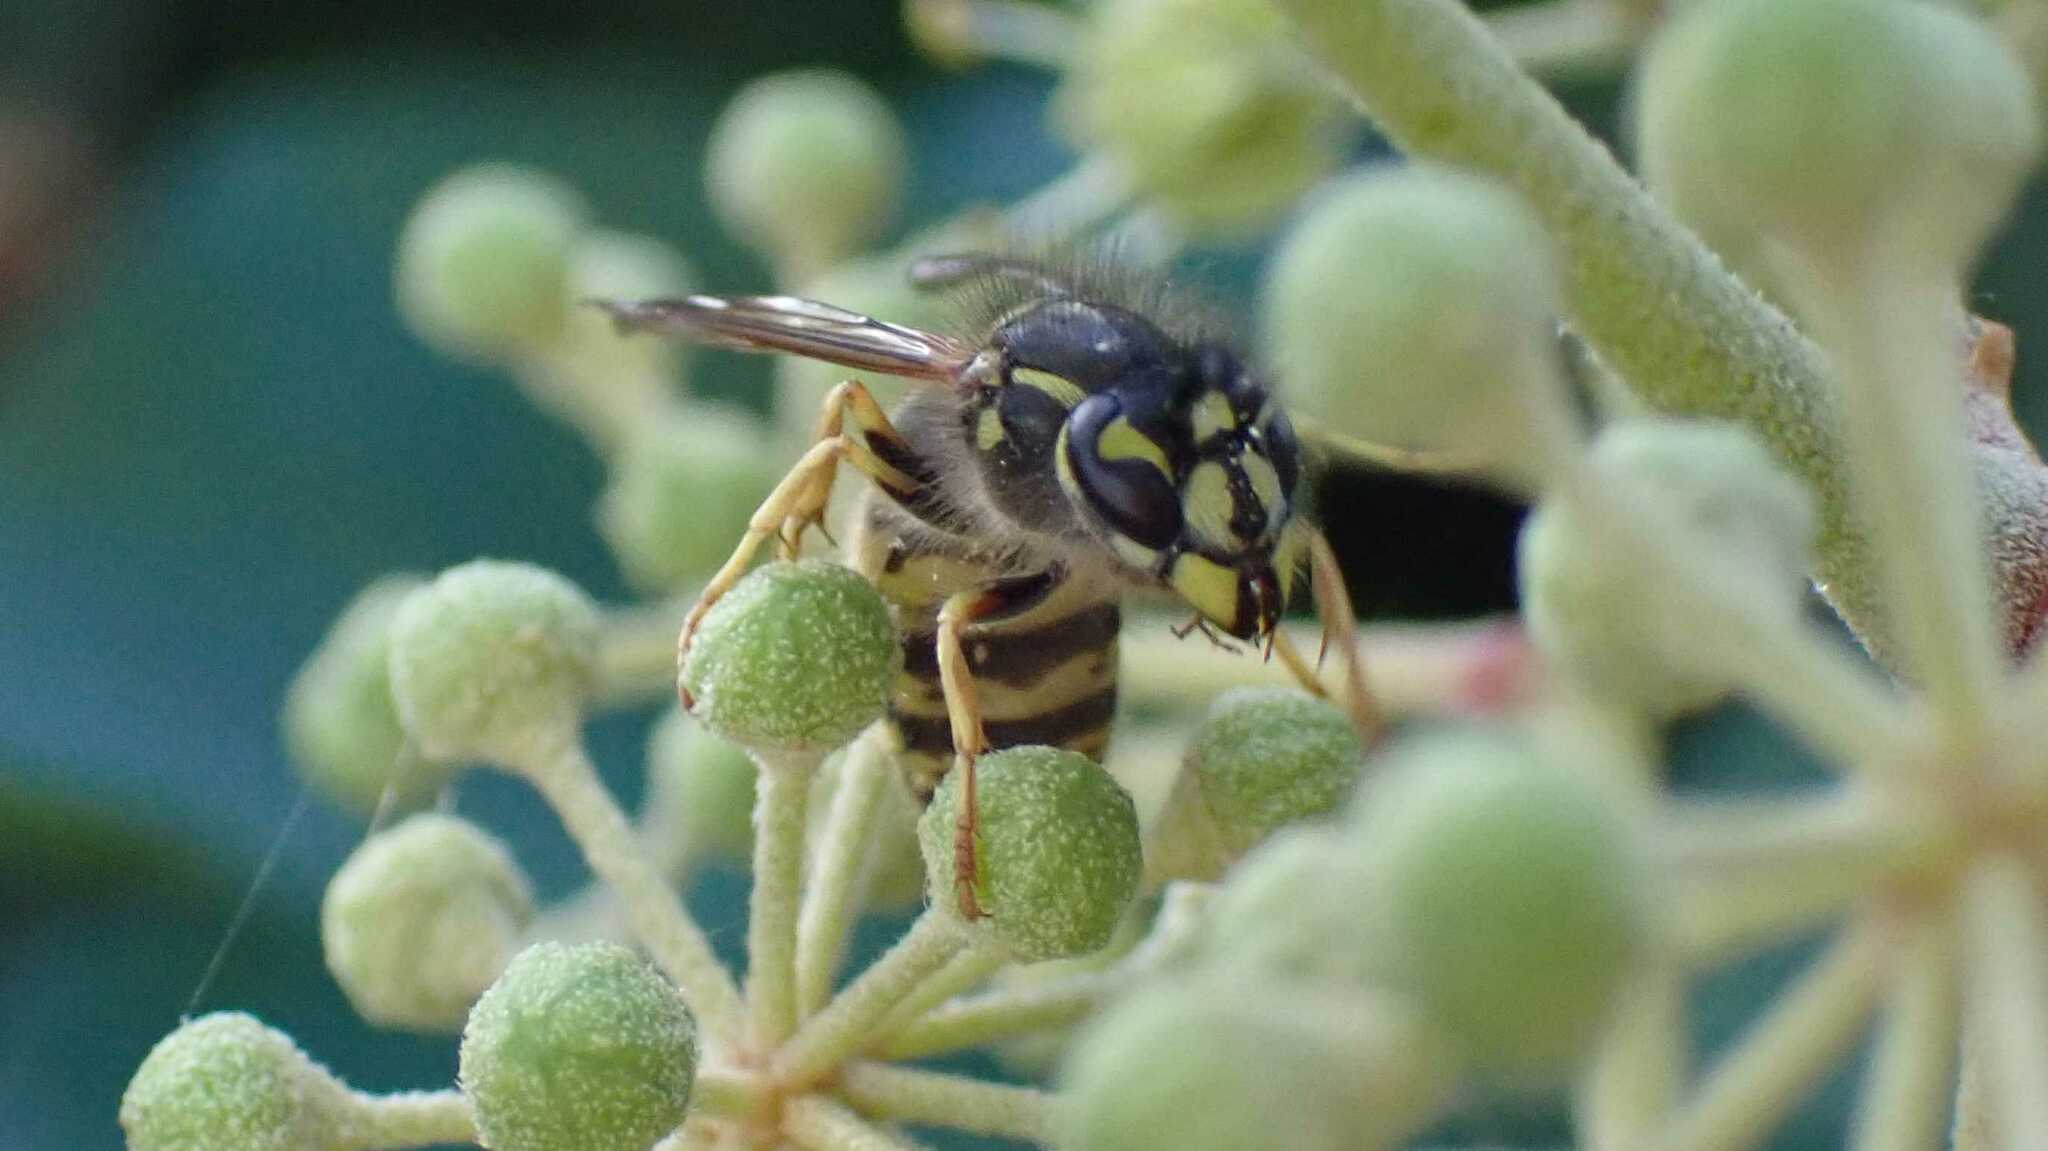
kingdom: Animalia
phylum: Arthropoda
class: Insecta
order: Hymenoptera
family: Vespidae
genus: Vespula
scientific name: Vespula vulgaris
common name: Common wasp
